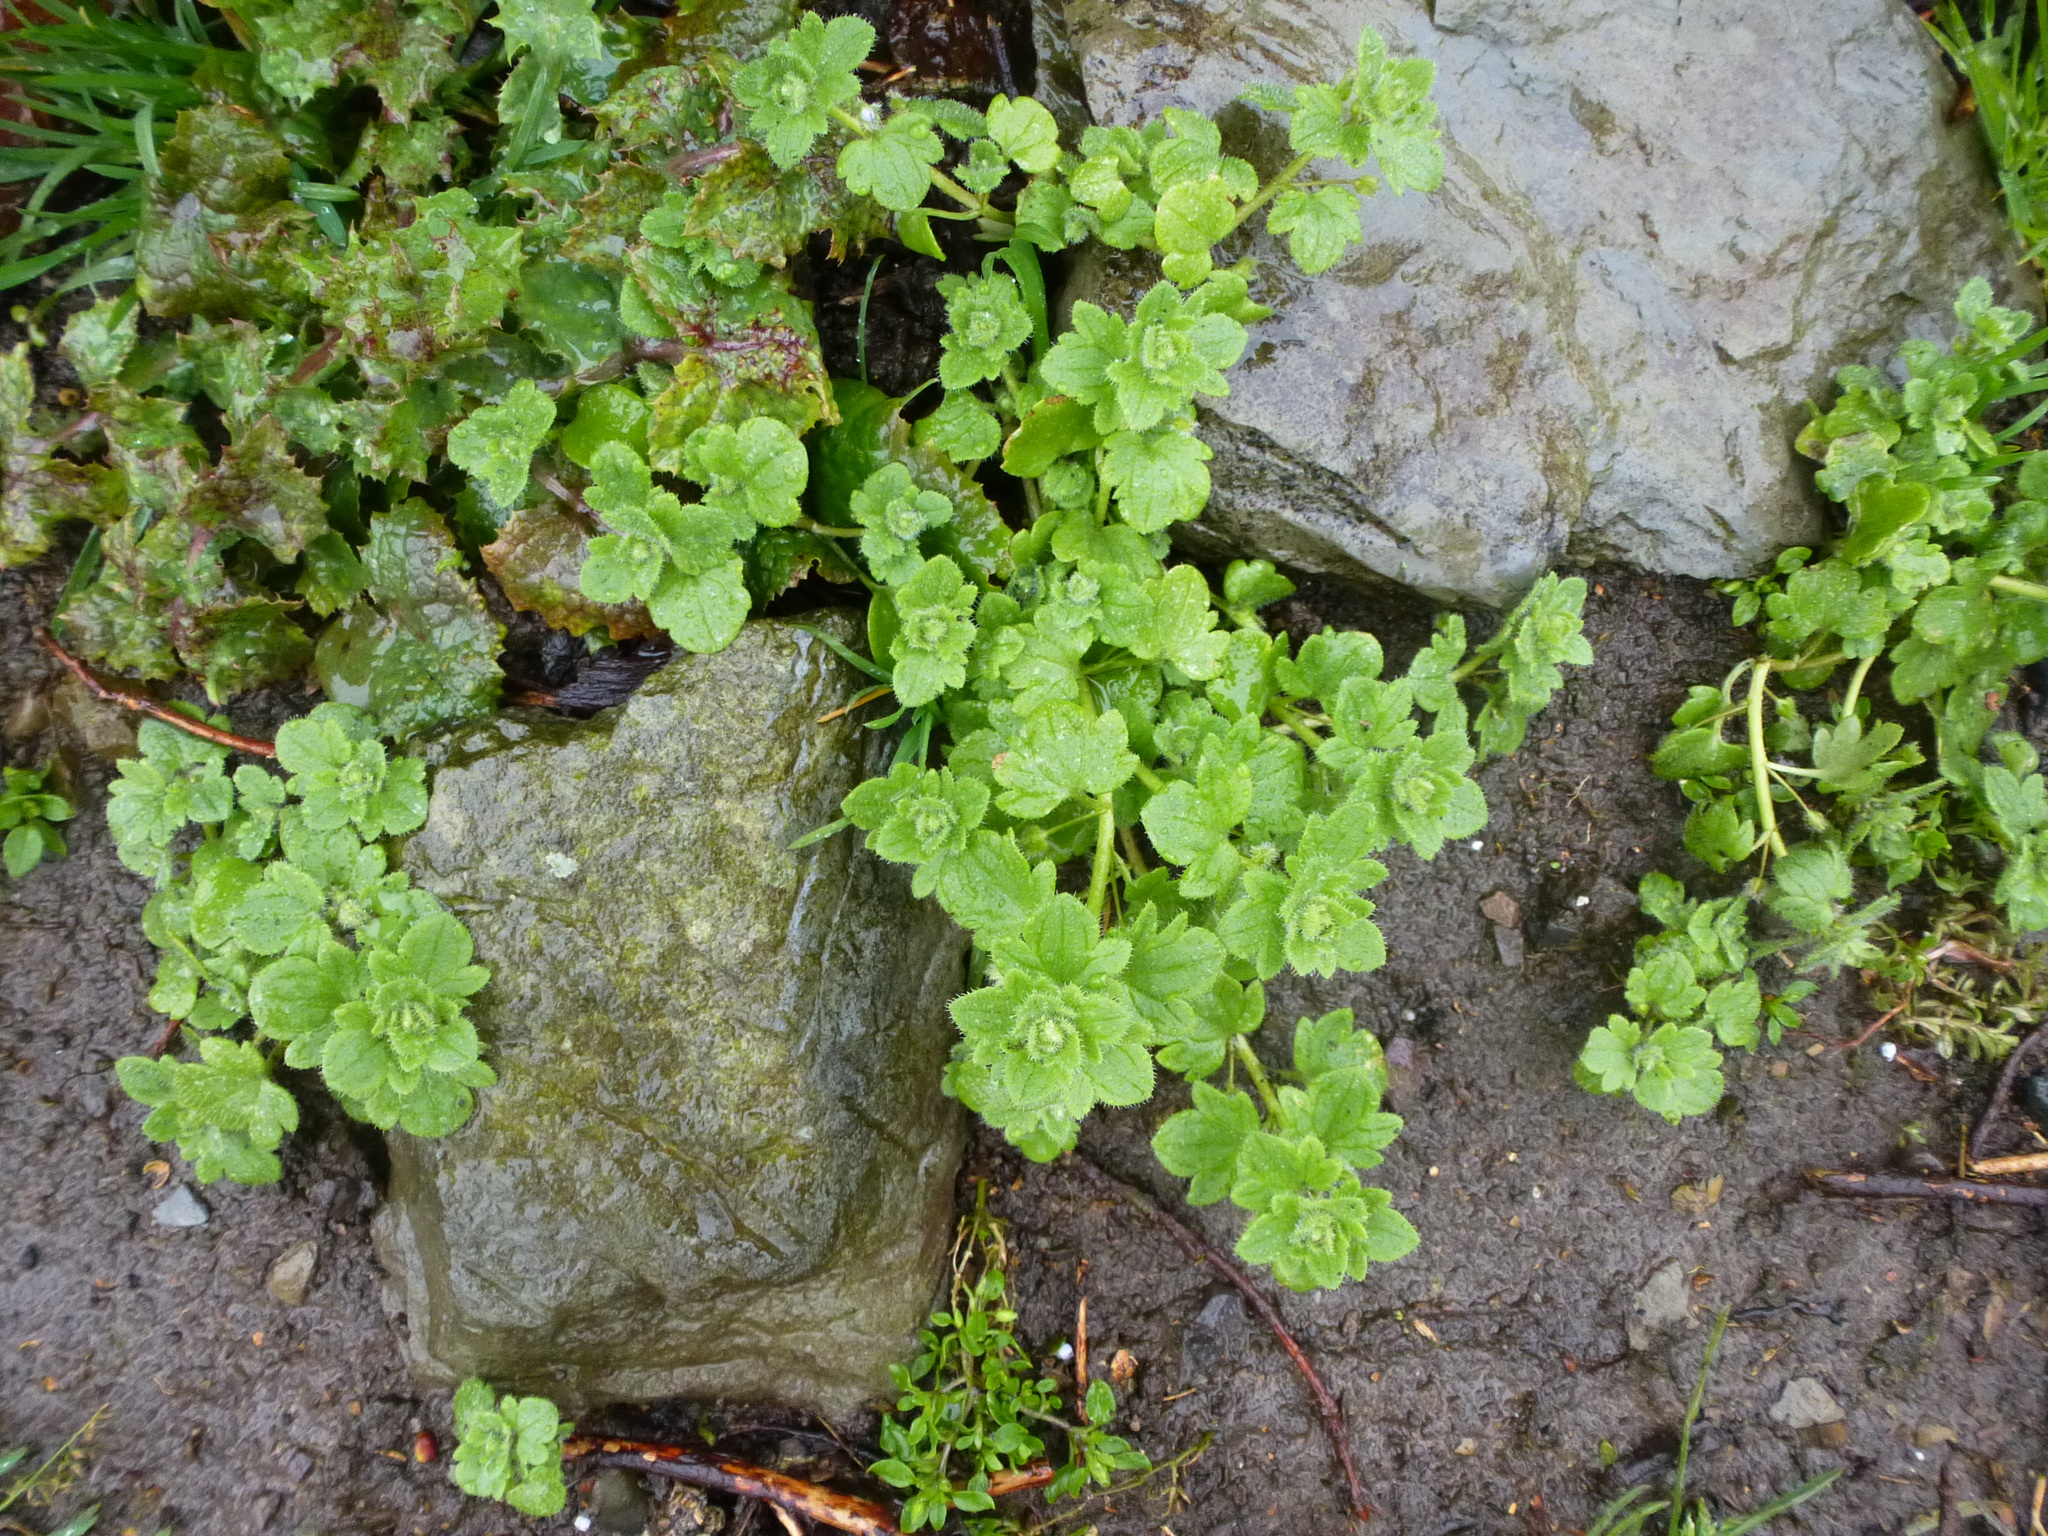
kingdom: Plantae
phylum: Tracheophyta
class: Magnoliopsida
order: Lamiales
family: Plantaginaceae
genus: Veronica
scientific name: Veronica hederifolia
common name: Ivy-leaved speedwell
